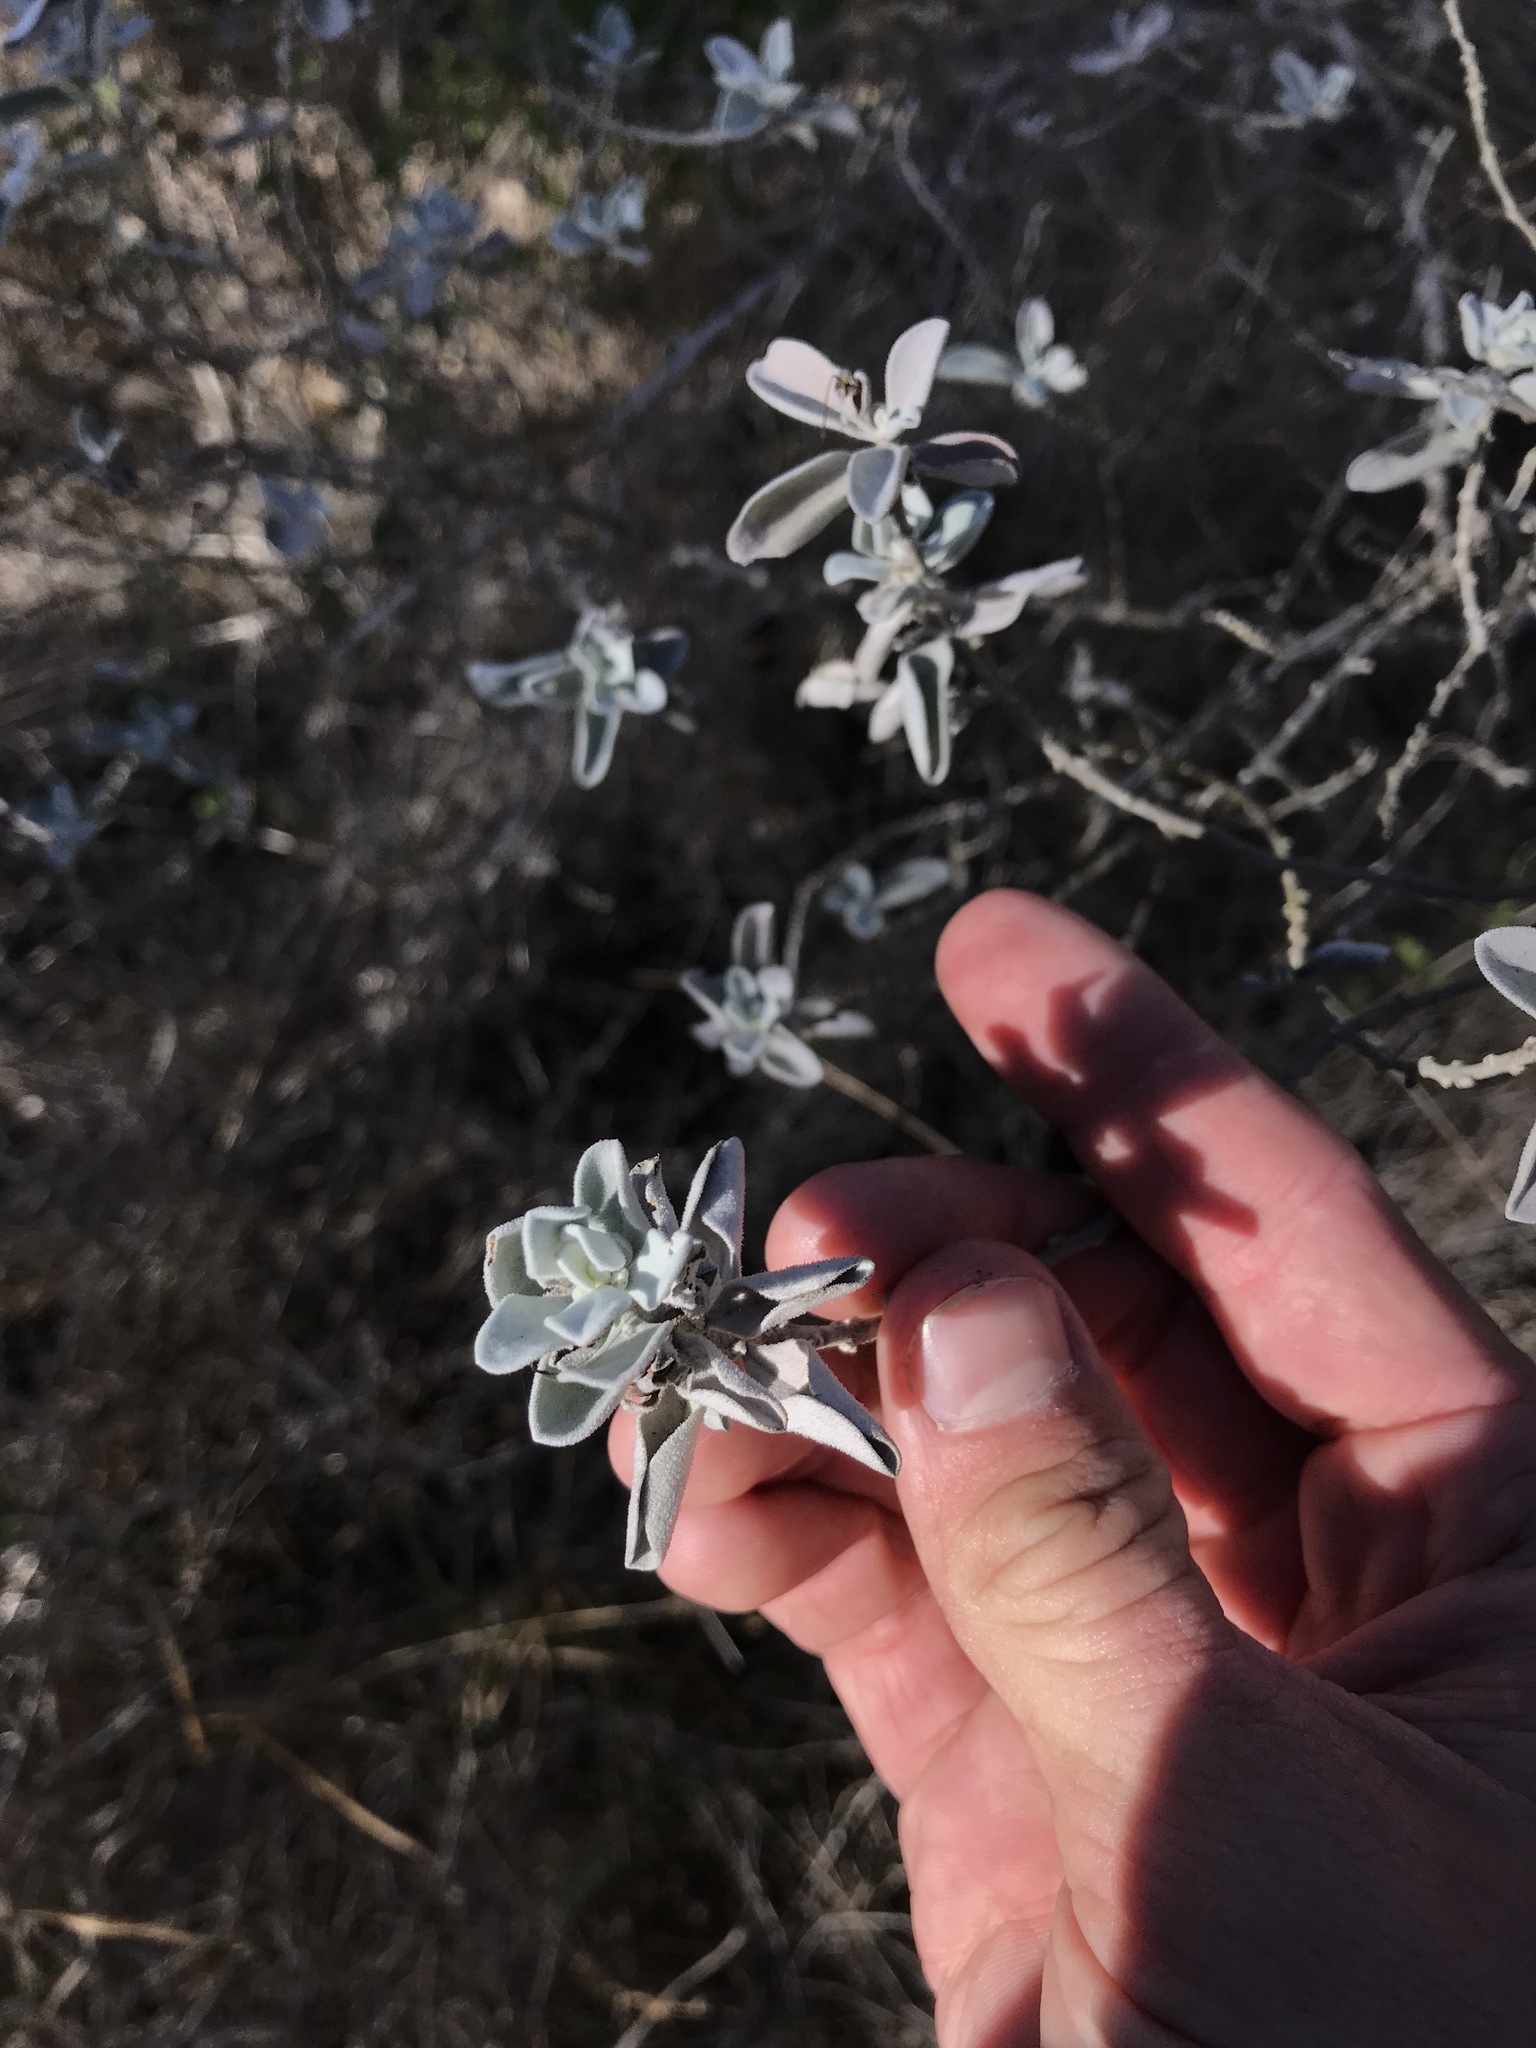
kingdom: Plantae
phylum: Tracheophyta
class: Magnoliopsida
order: Lamiales
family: Scrophulariaceae
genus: Leucophyllum
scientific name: Leucophyllum frutescens
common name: Texas silverleaf
